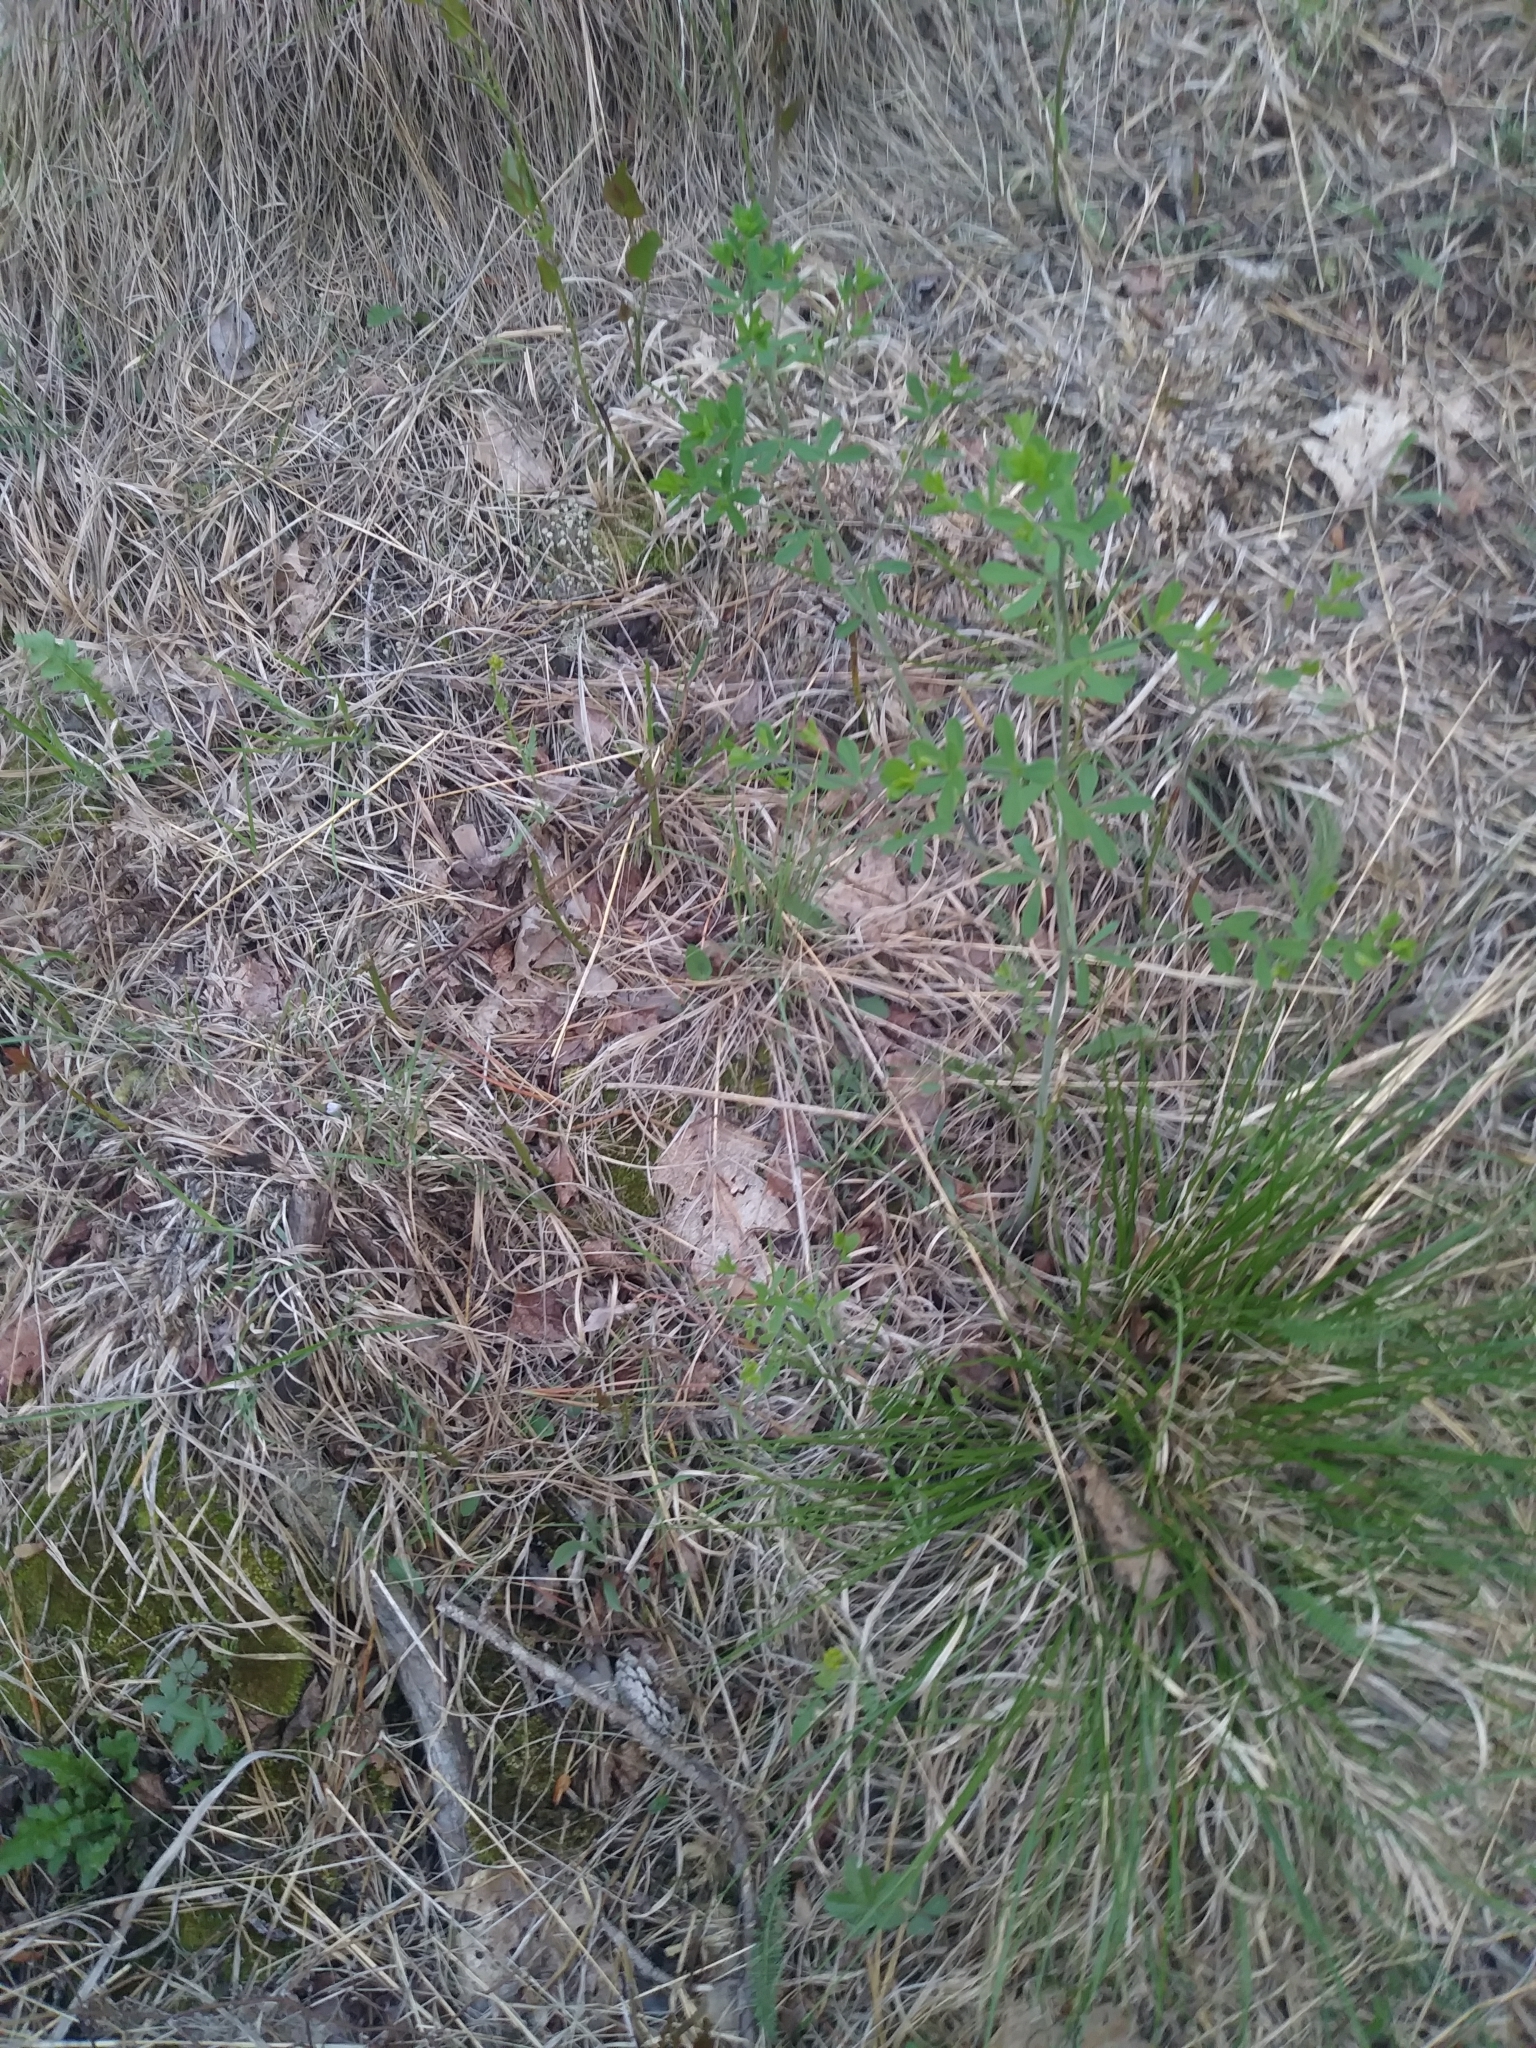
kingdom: Plantae
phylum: Tracheophyta
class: Magnoliopsida
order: Fabales
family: Fabaceae
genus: Baptisia
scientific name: Baptisia tinctoria
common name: Wild indigo
